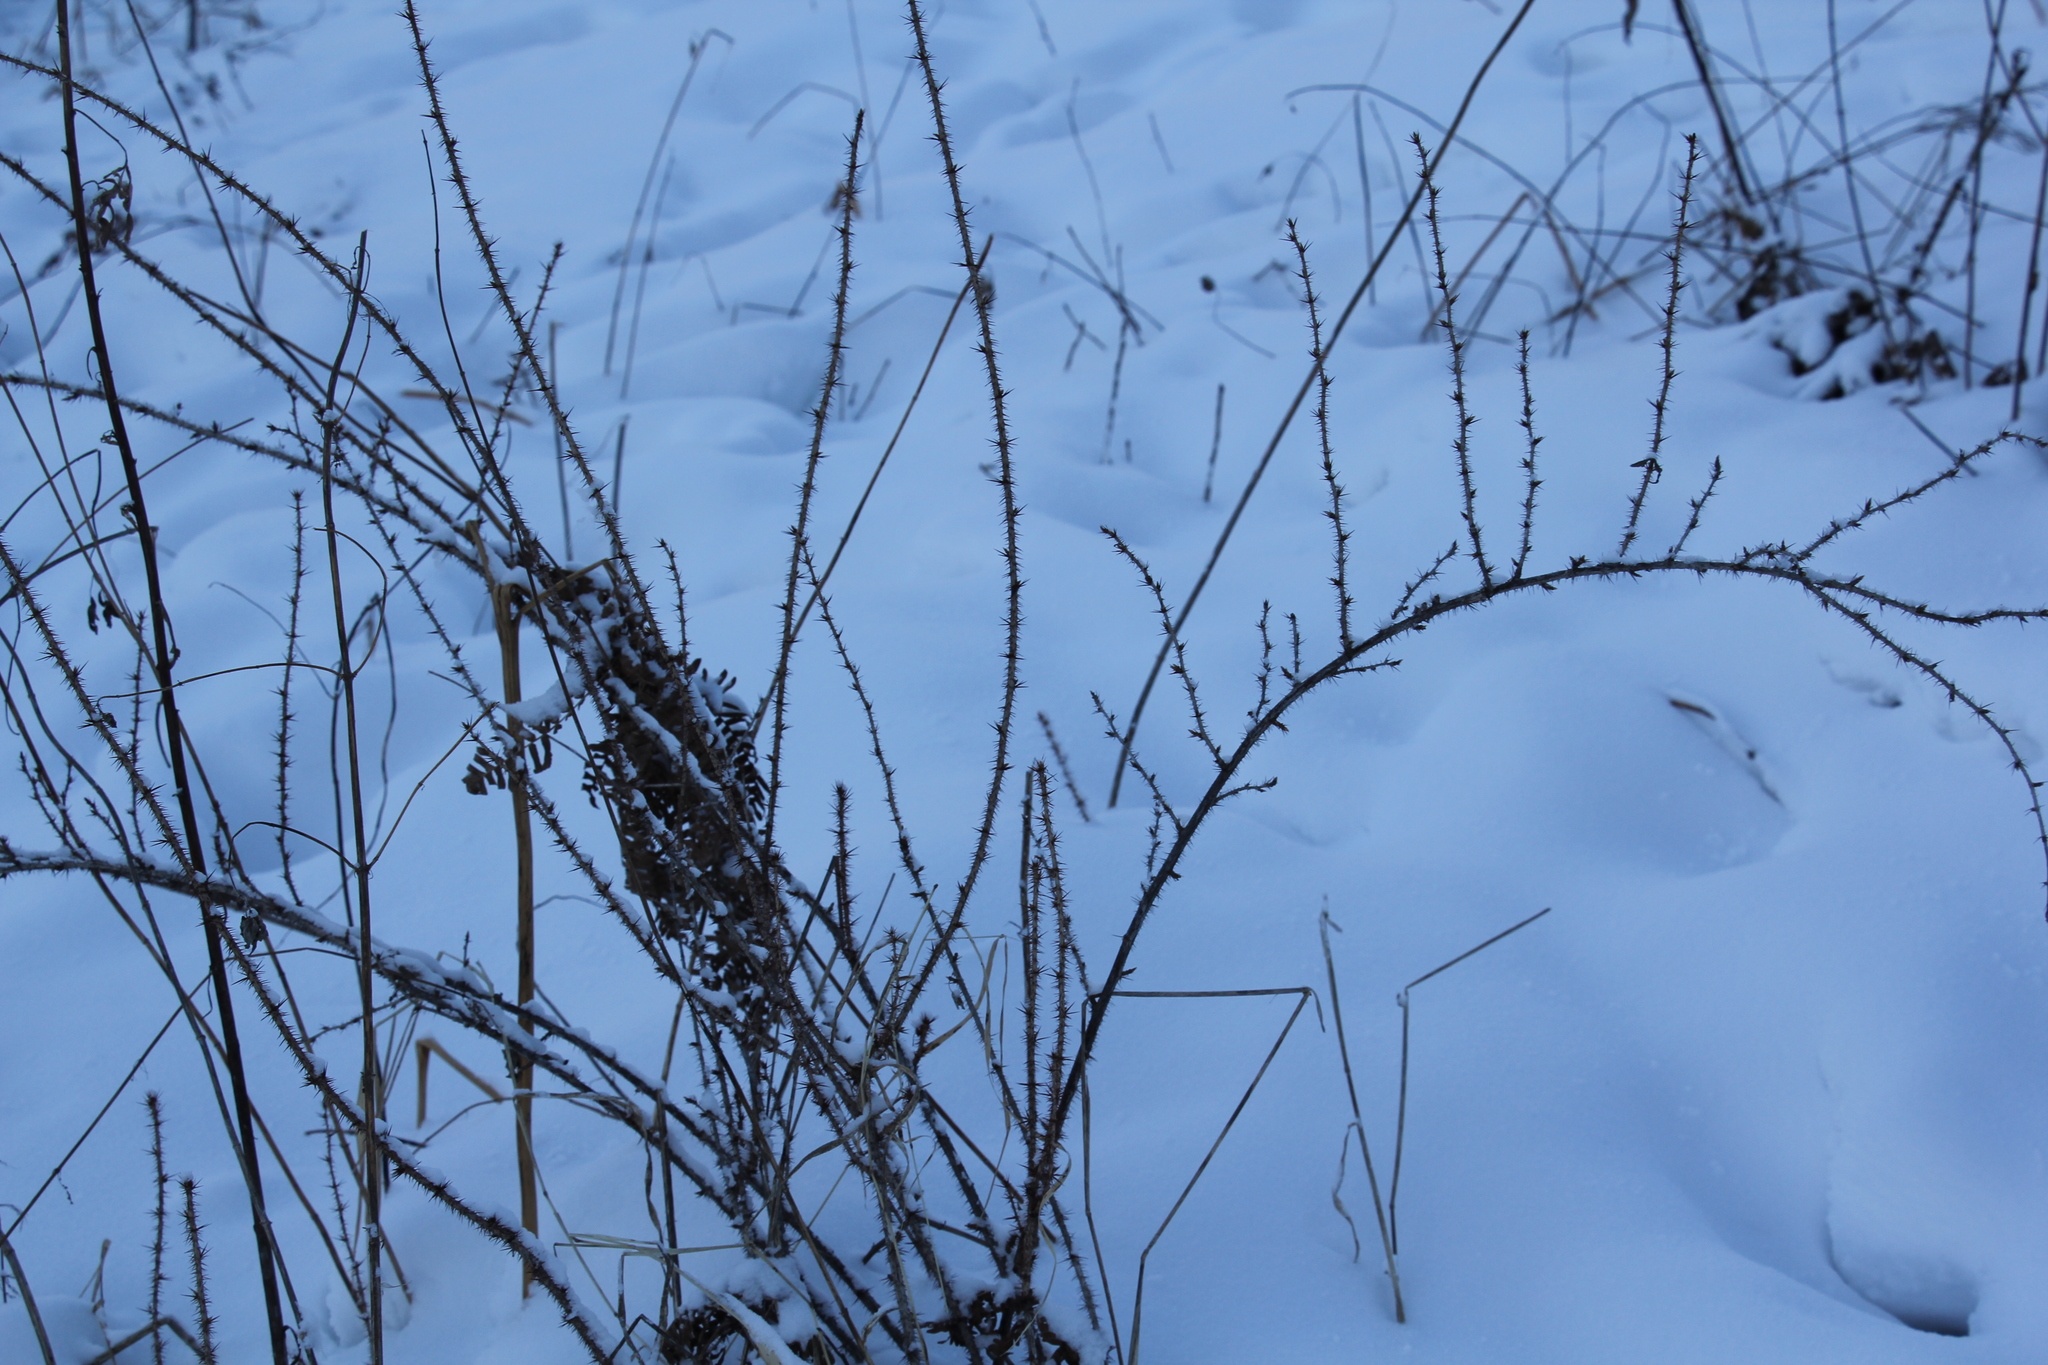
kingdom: Plantae
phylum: Tracheophyta
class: Magnoliopsida
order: Saxifragales
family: Grossulariaceae
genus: Ribes
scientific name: Ribes aciculare
